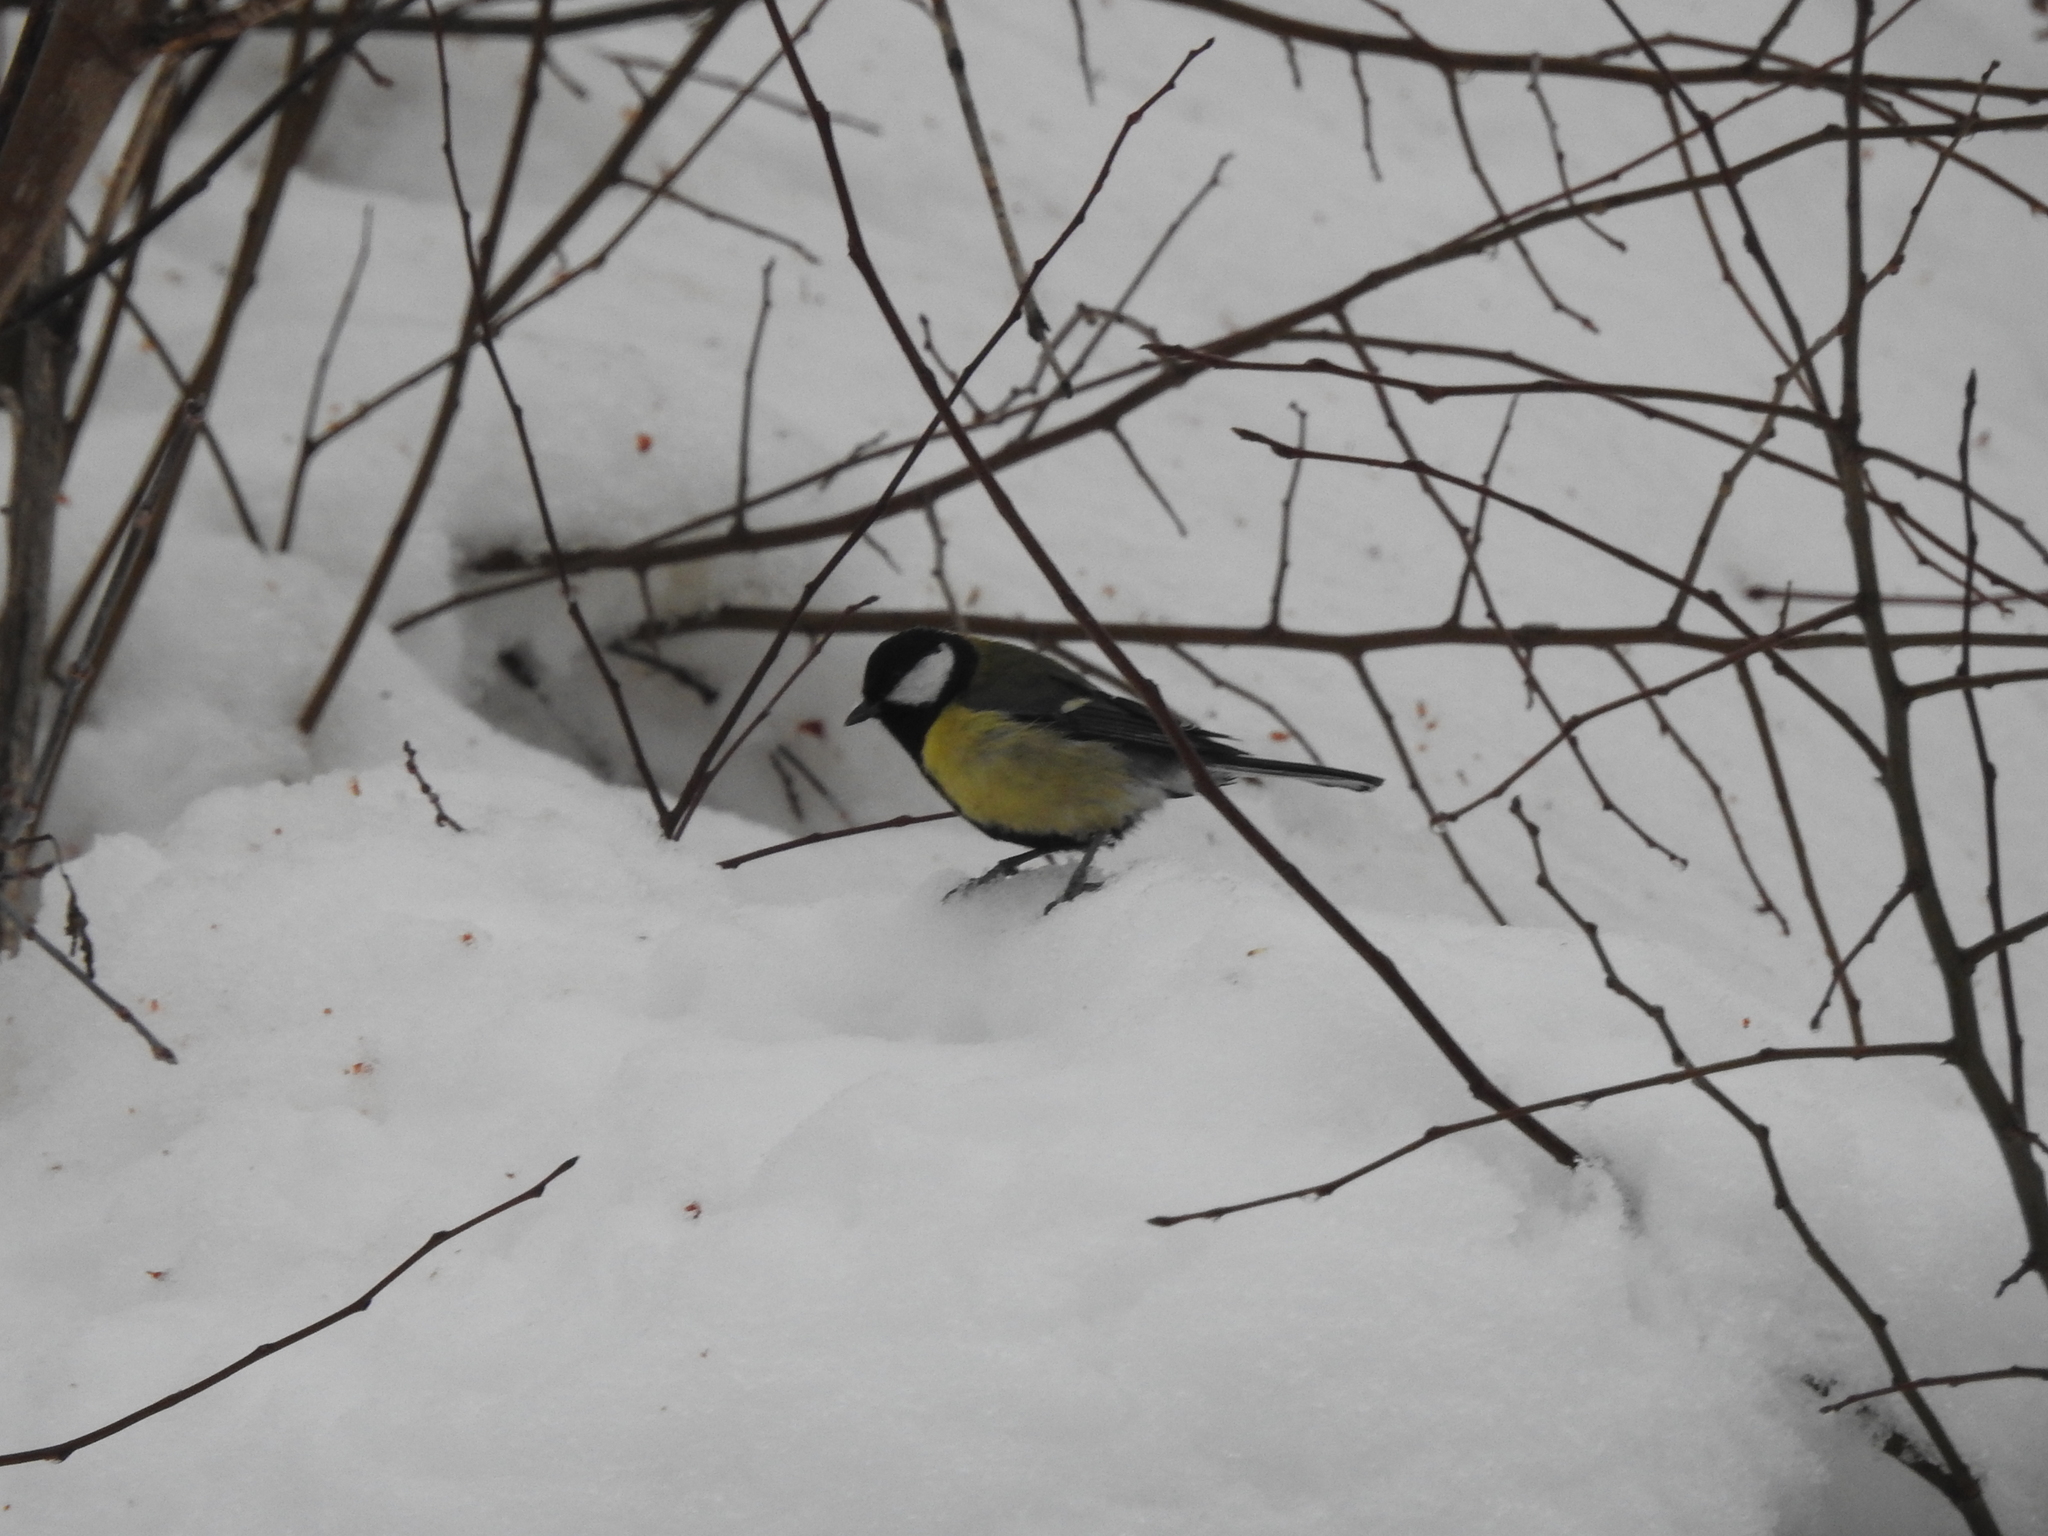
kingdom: Animalia
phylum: Chordata
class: Aves
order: Passeriformes
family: Paridae
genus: Parus
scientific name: Parus major
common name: Great tit
